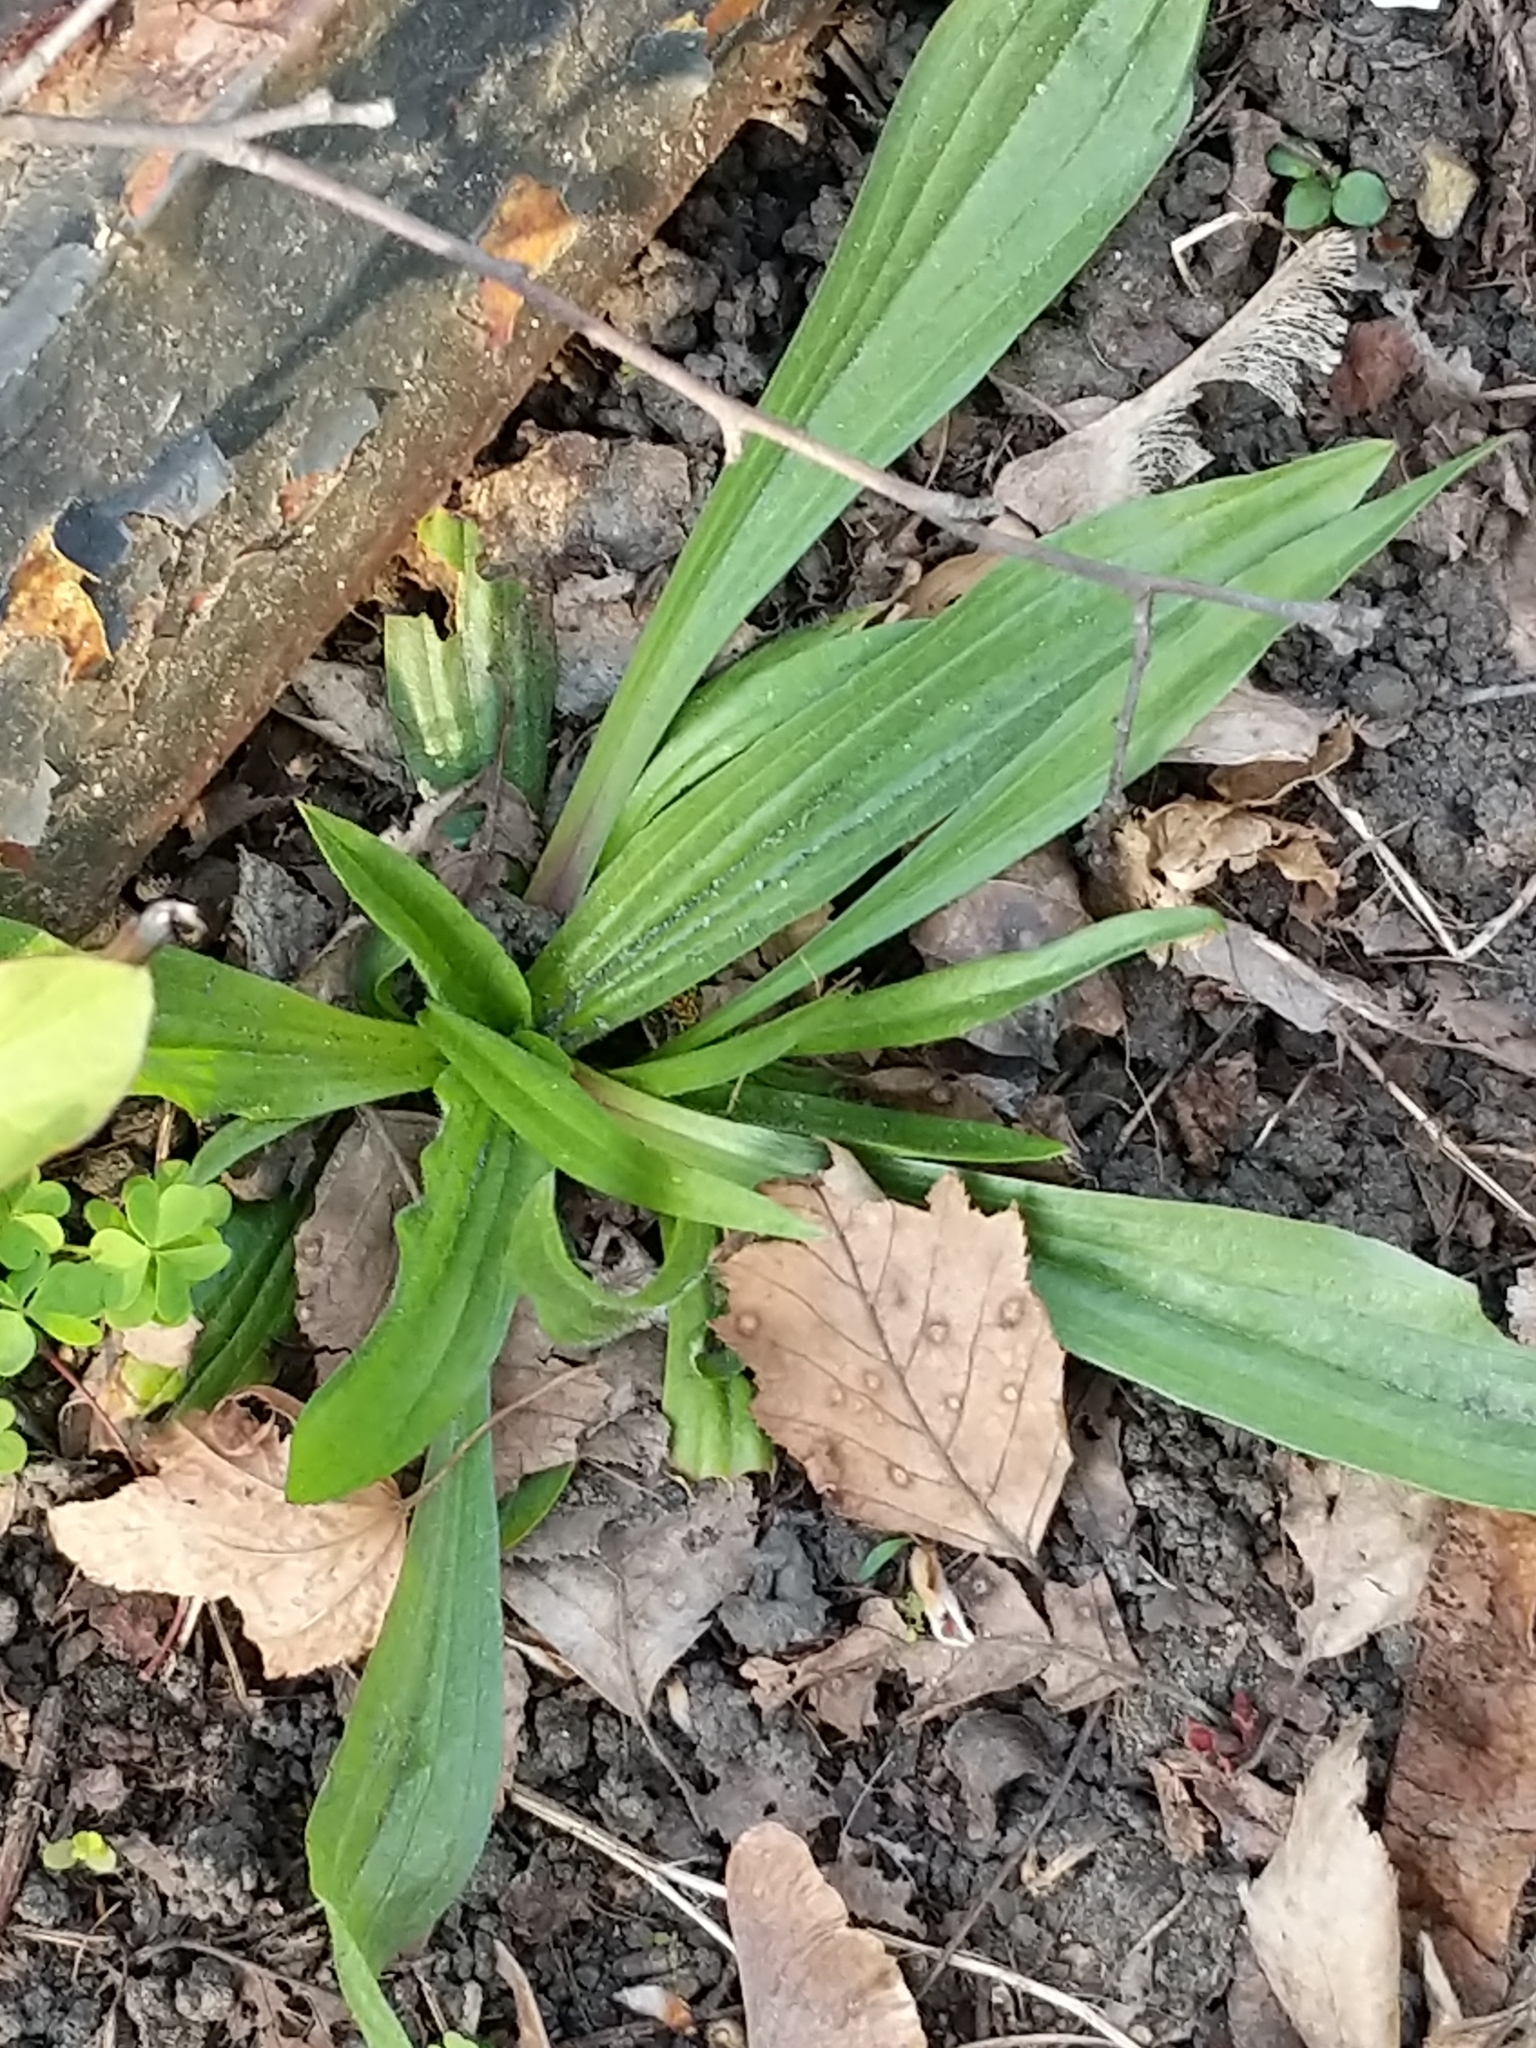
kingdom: Plantae
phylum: Tracheophyta
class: Magnoliopsida
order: Lamiales
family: Plantaginaceae
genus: Plantago
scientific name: Plantago lanceolata
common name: Ribwort plantain
